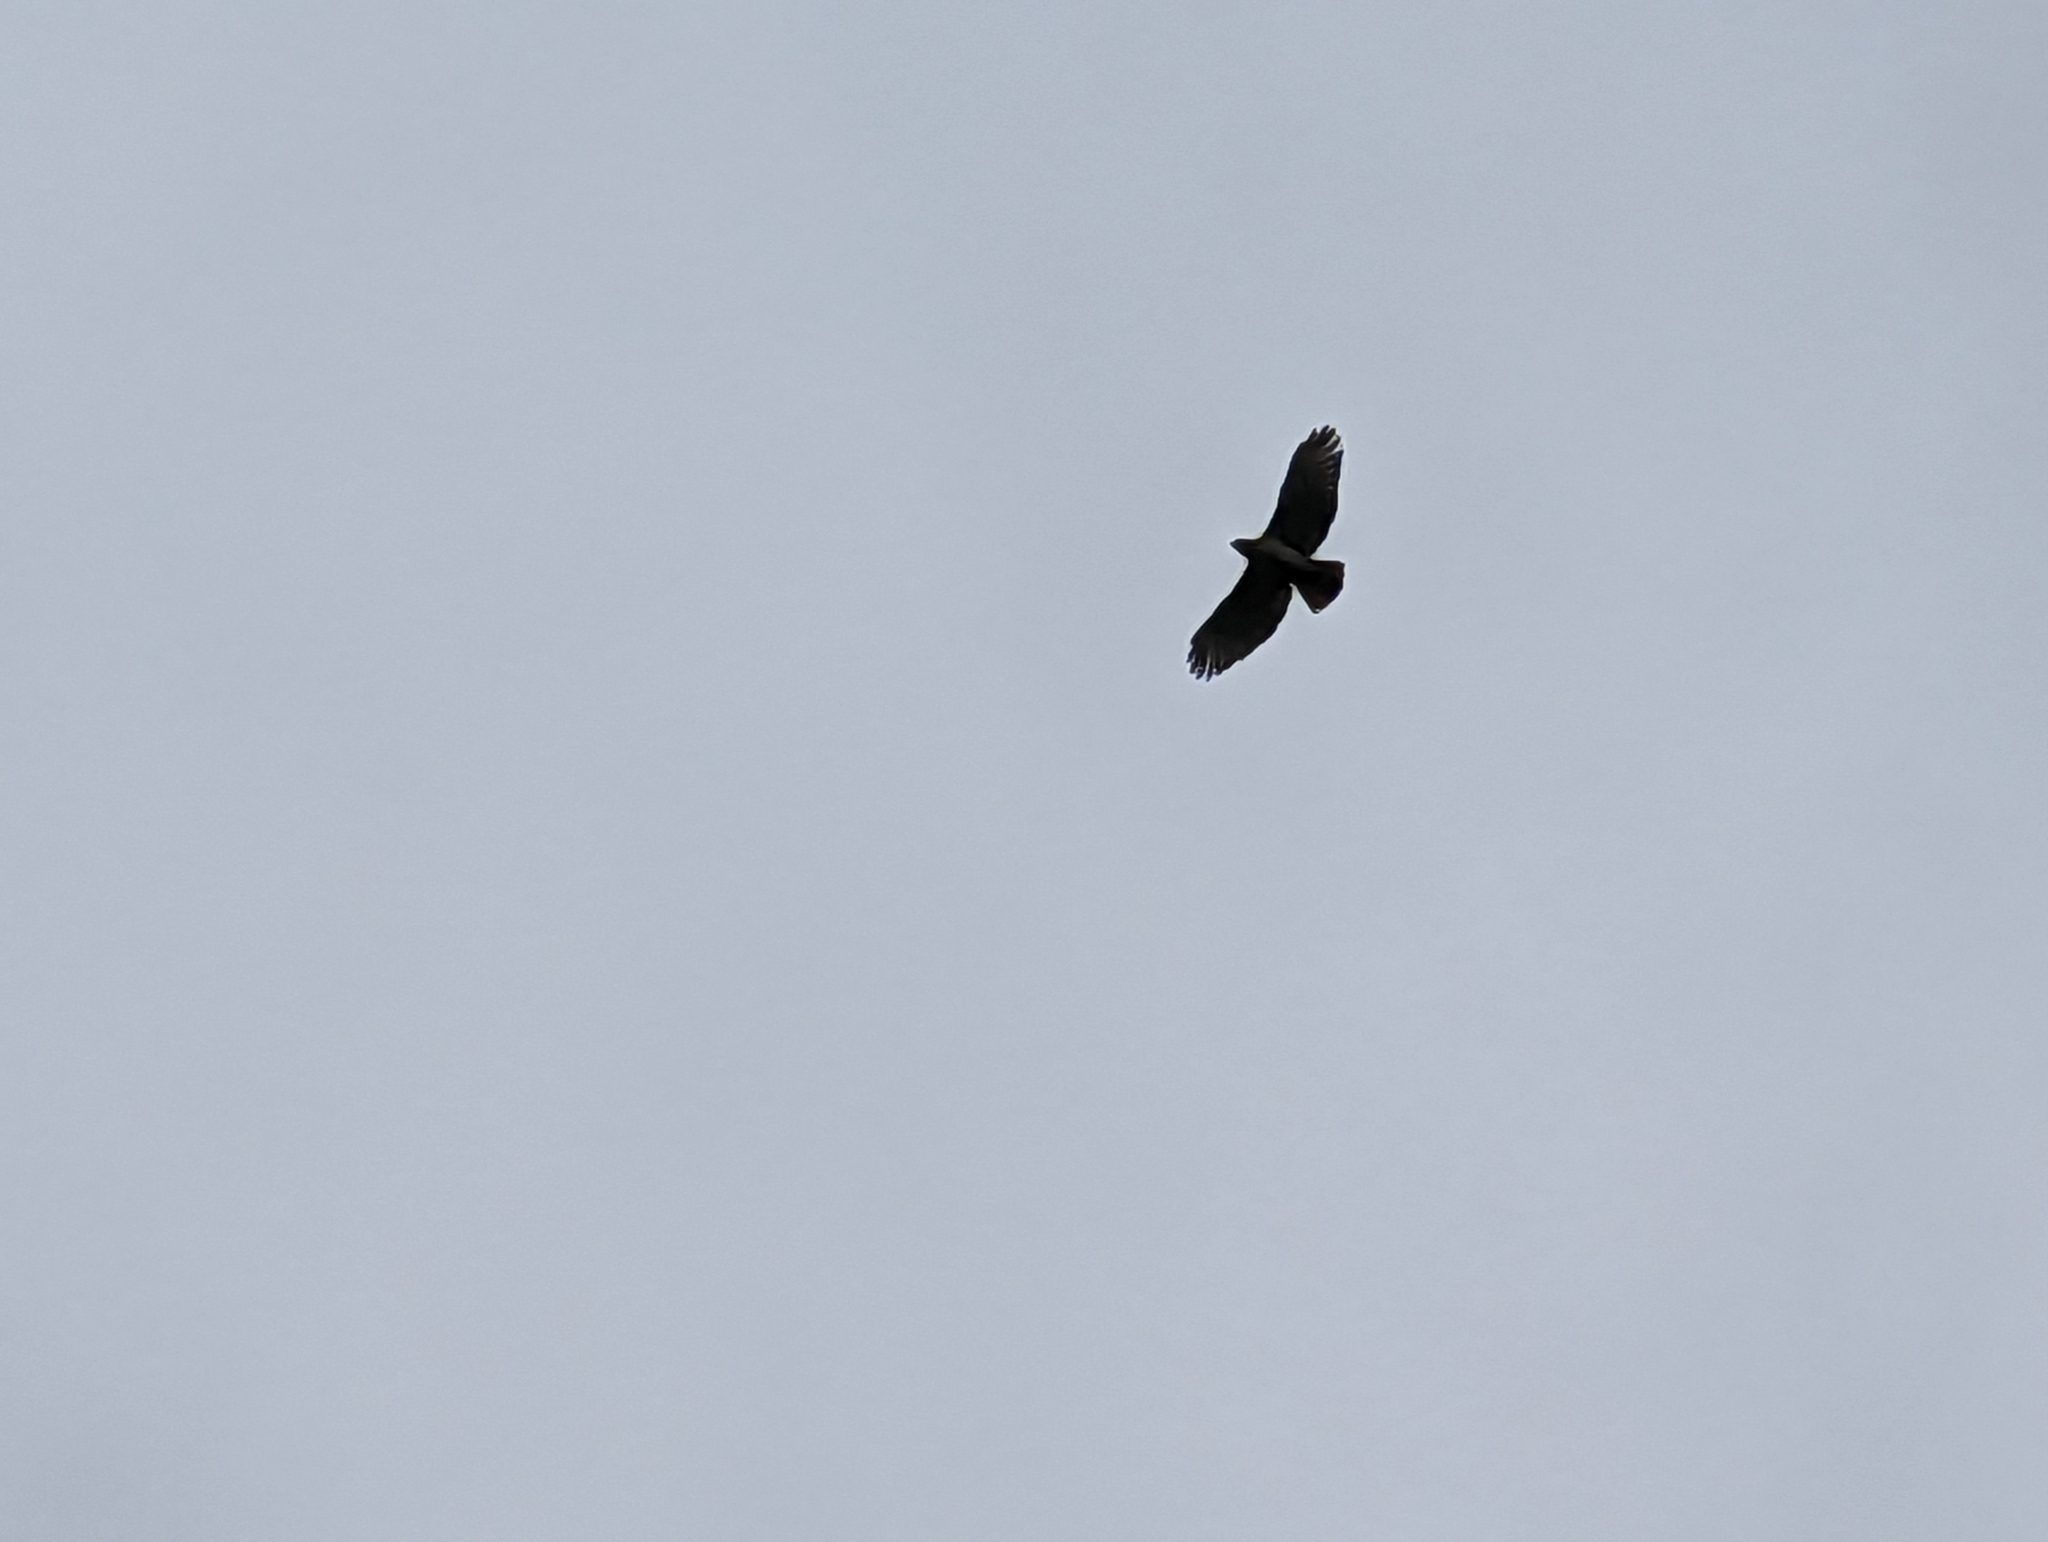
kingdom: Animalia
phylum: Chordata
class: Aves
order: Accipitriformes
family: Accipitridae
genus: Buteo
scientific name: Buteo jamaicensis
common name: Red-tailed hawk
